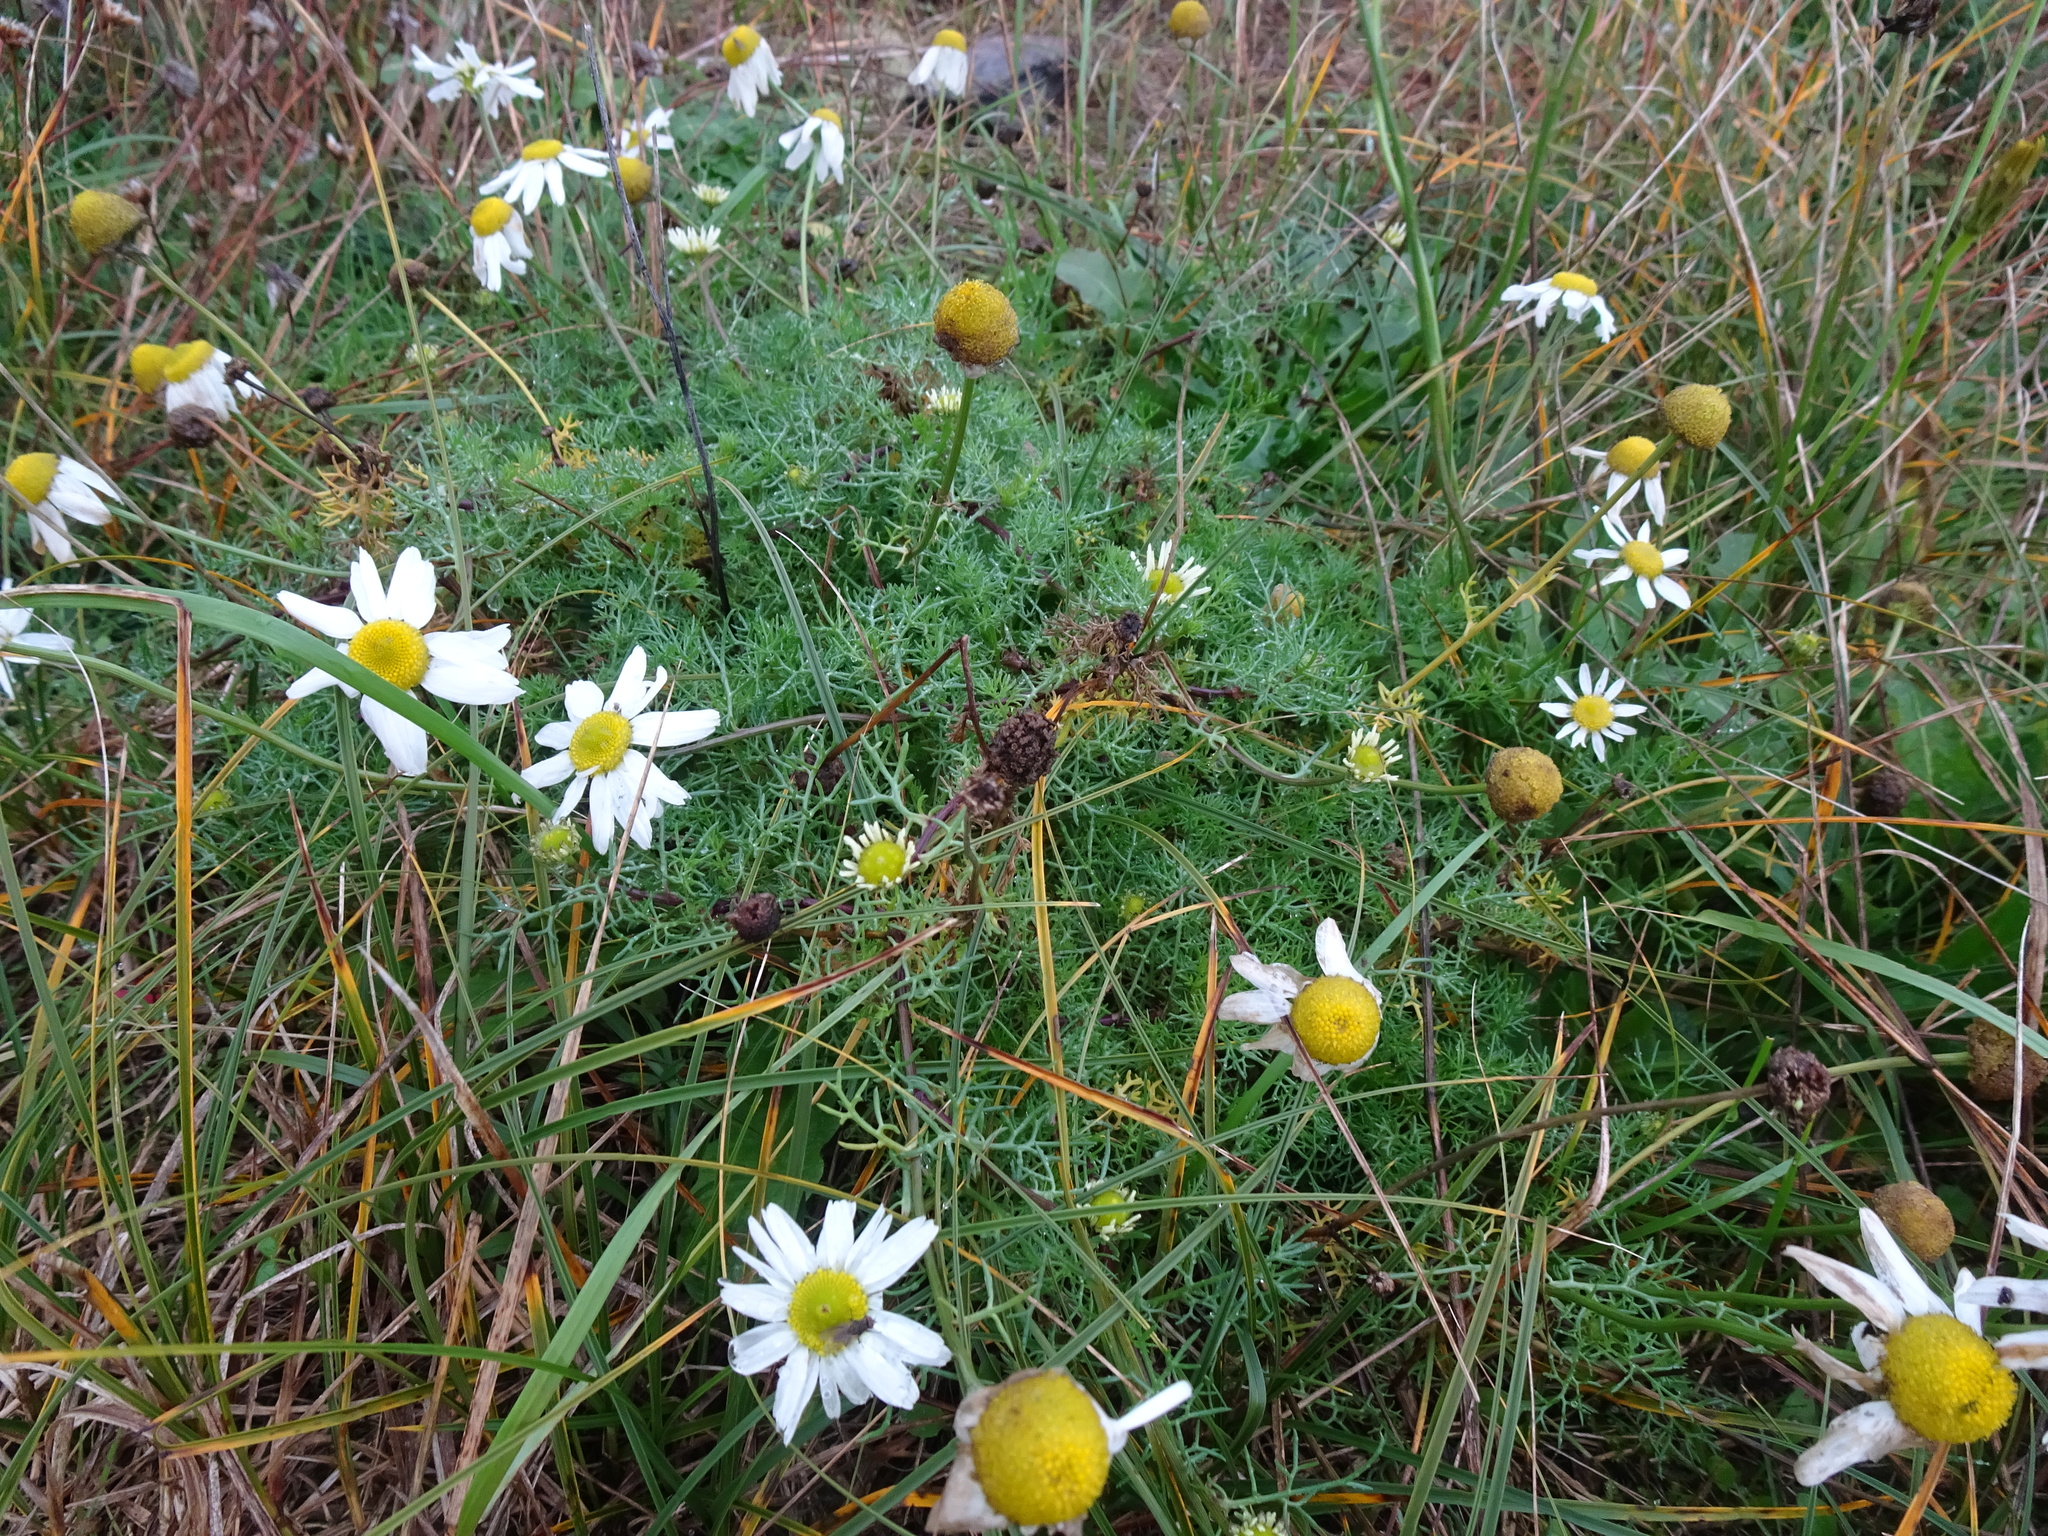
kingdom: Plantae
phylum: Tracheophyta
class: Magnoliopsida
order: Asterales
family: Asteraceae
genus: Tripleurospermum
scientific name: Tripleurospermum maritimum
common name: Sea mayweed
